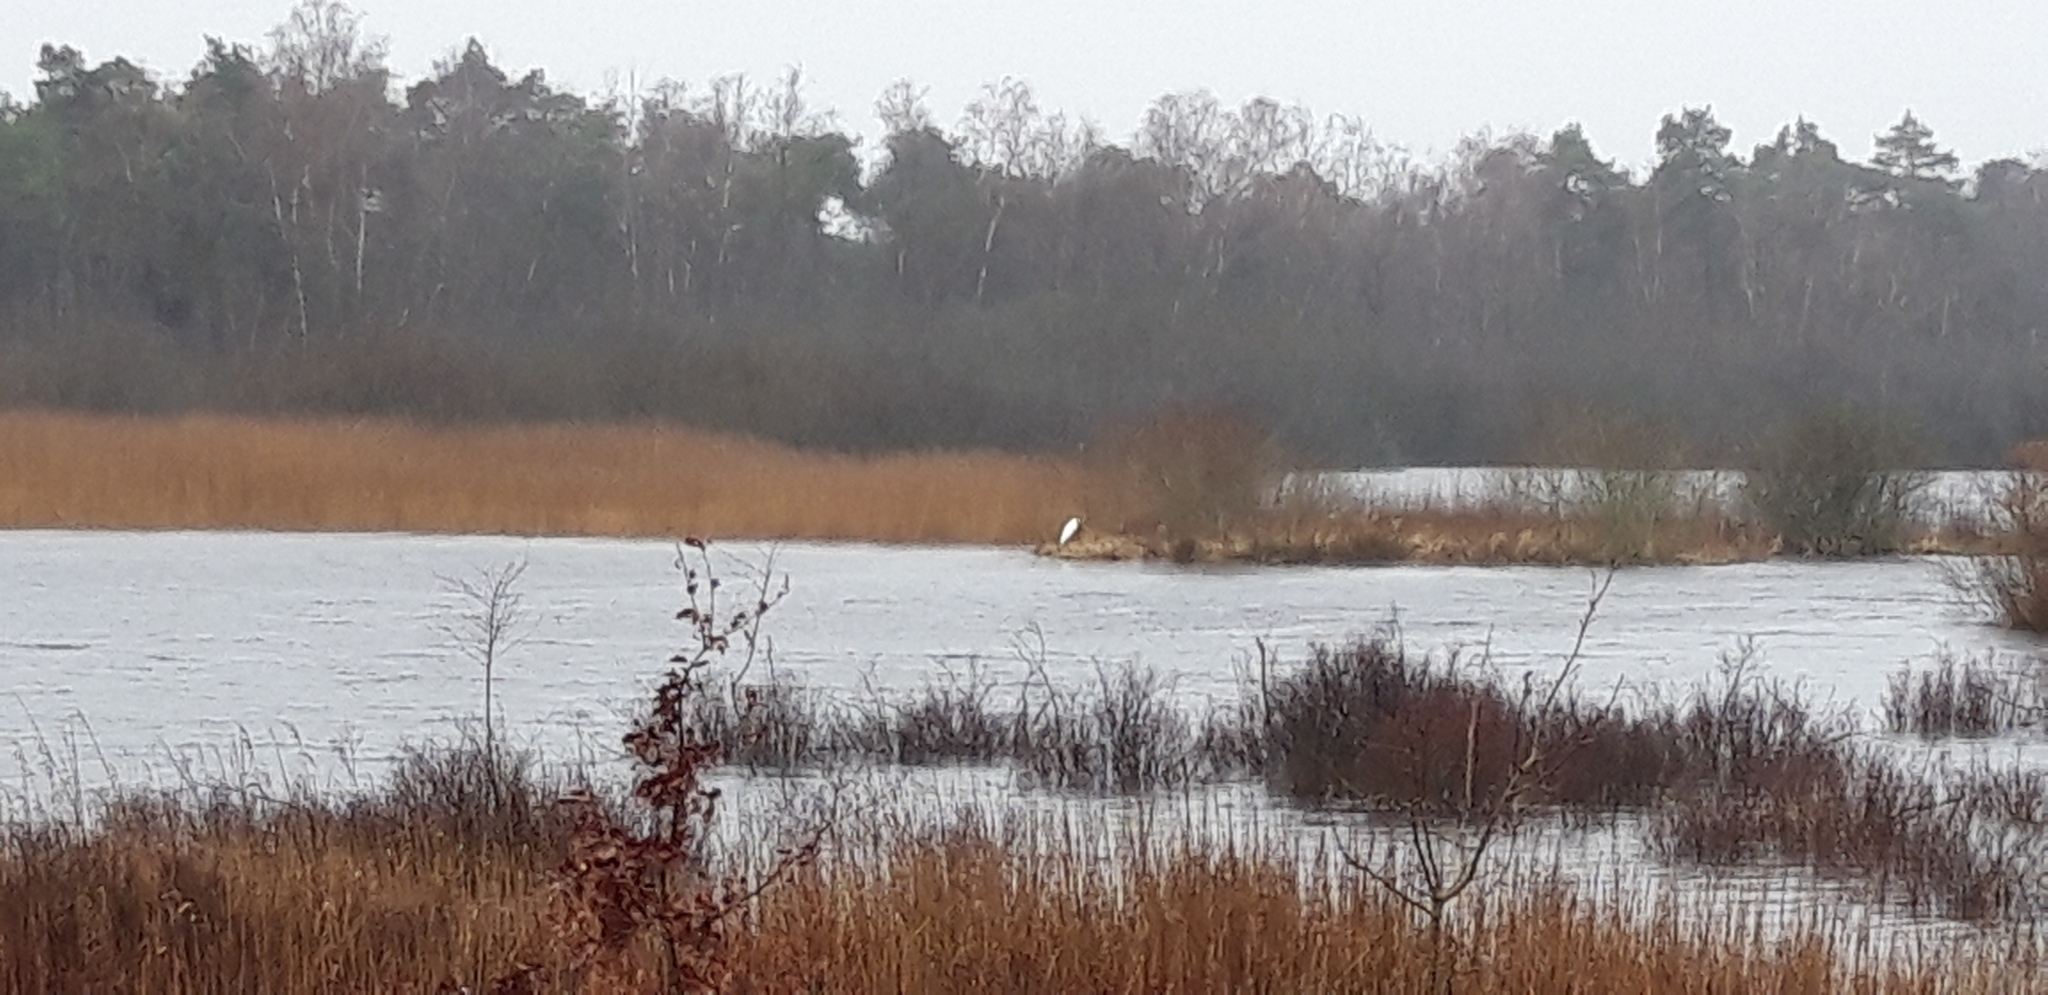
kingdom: Animalia
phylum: Chordata
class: Aves
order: Pelecaniformes
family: Ardeidae
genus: Ardea
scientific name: Ardea alba
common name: Great egret
